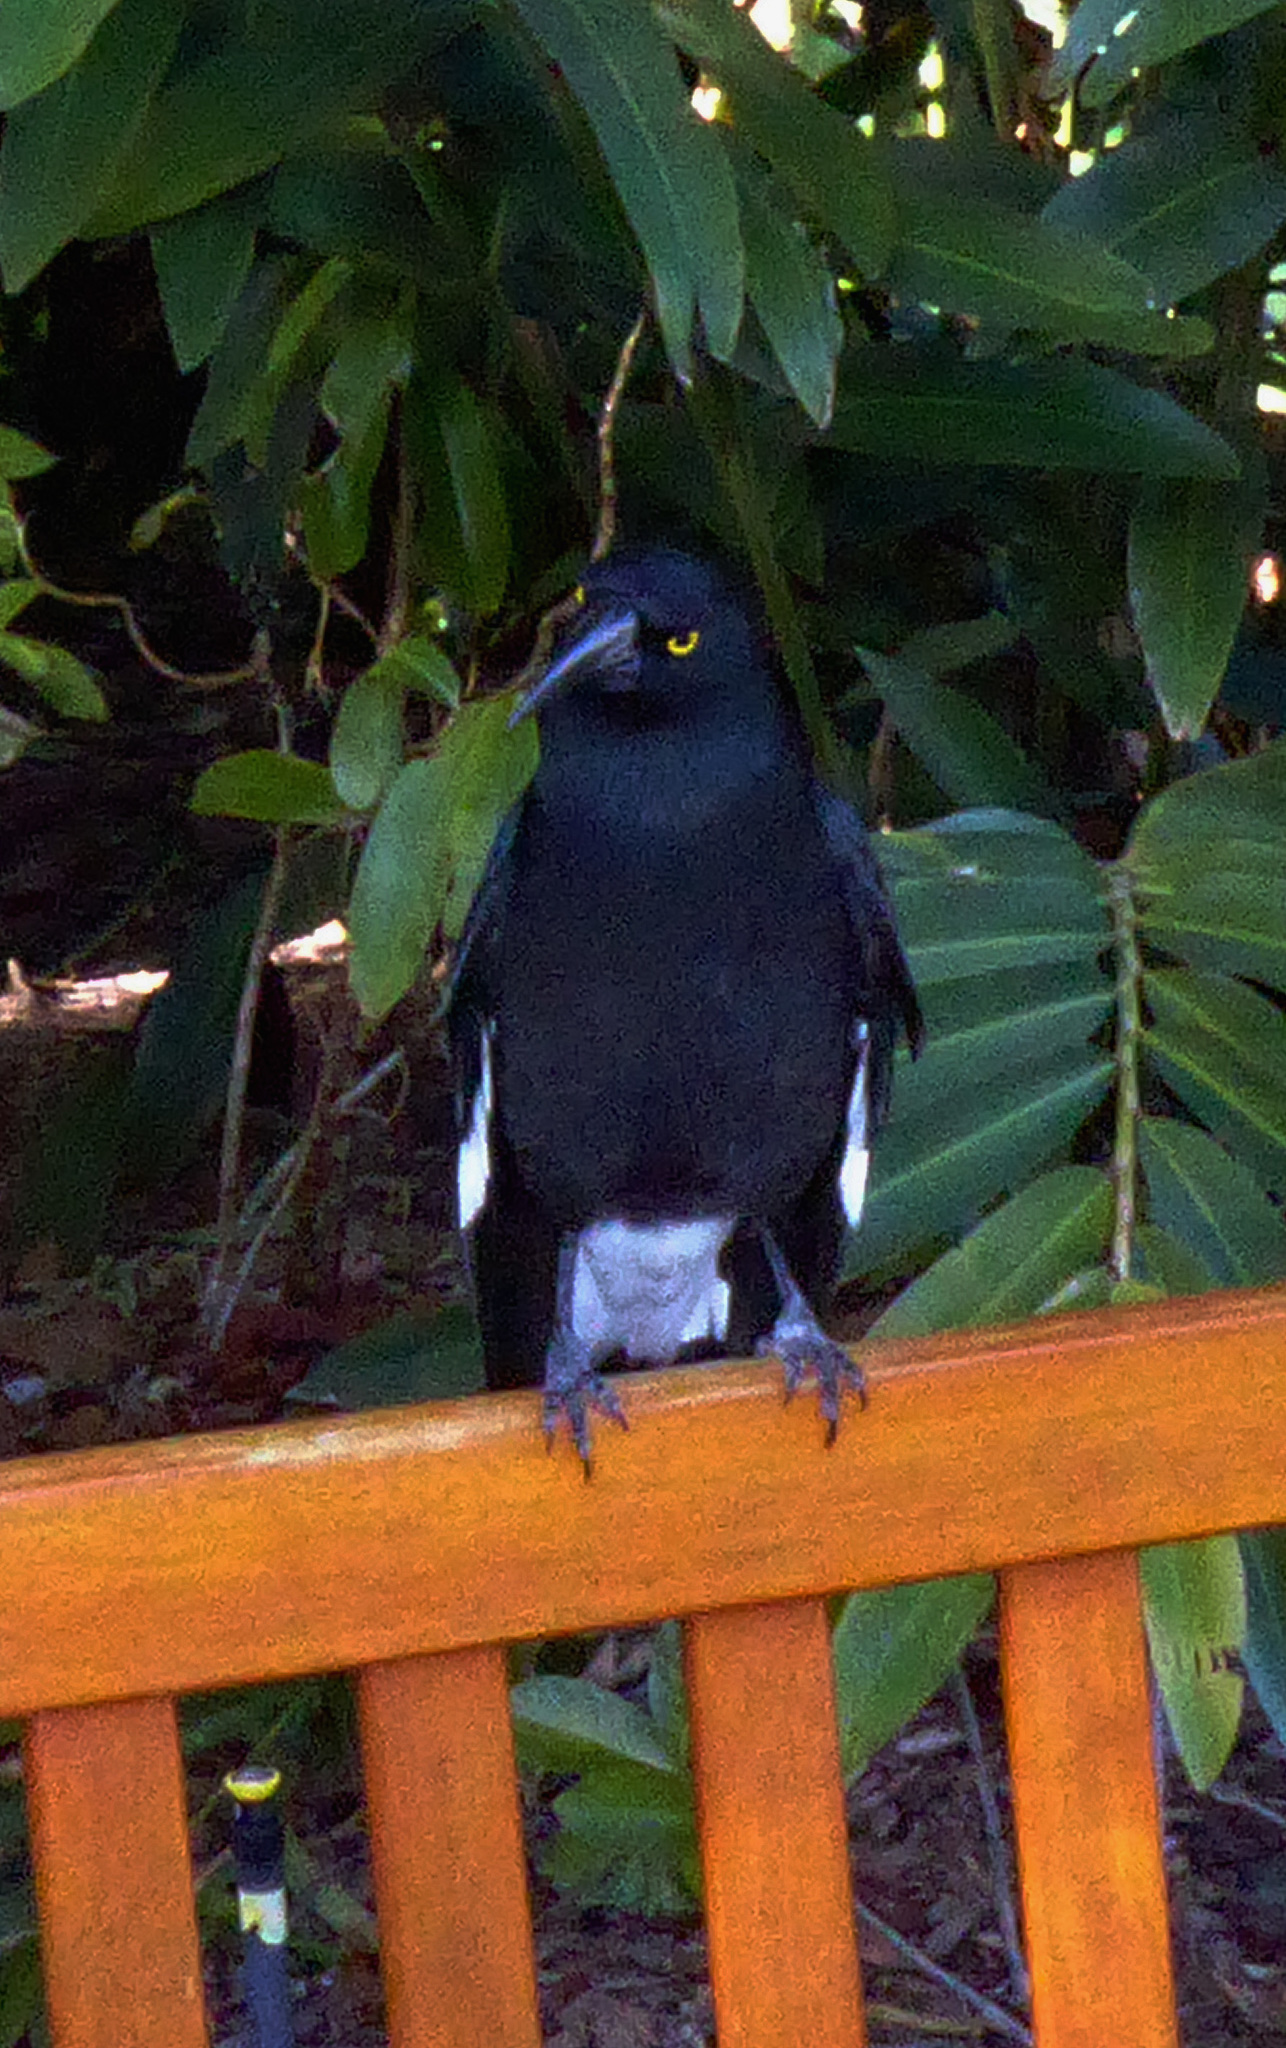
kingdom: Animalia
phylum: Chordata
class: Aves
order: Passeriformes
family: Cracticidae
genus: Strepera
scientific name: Strepera graculina
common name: Pied currawong
